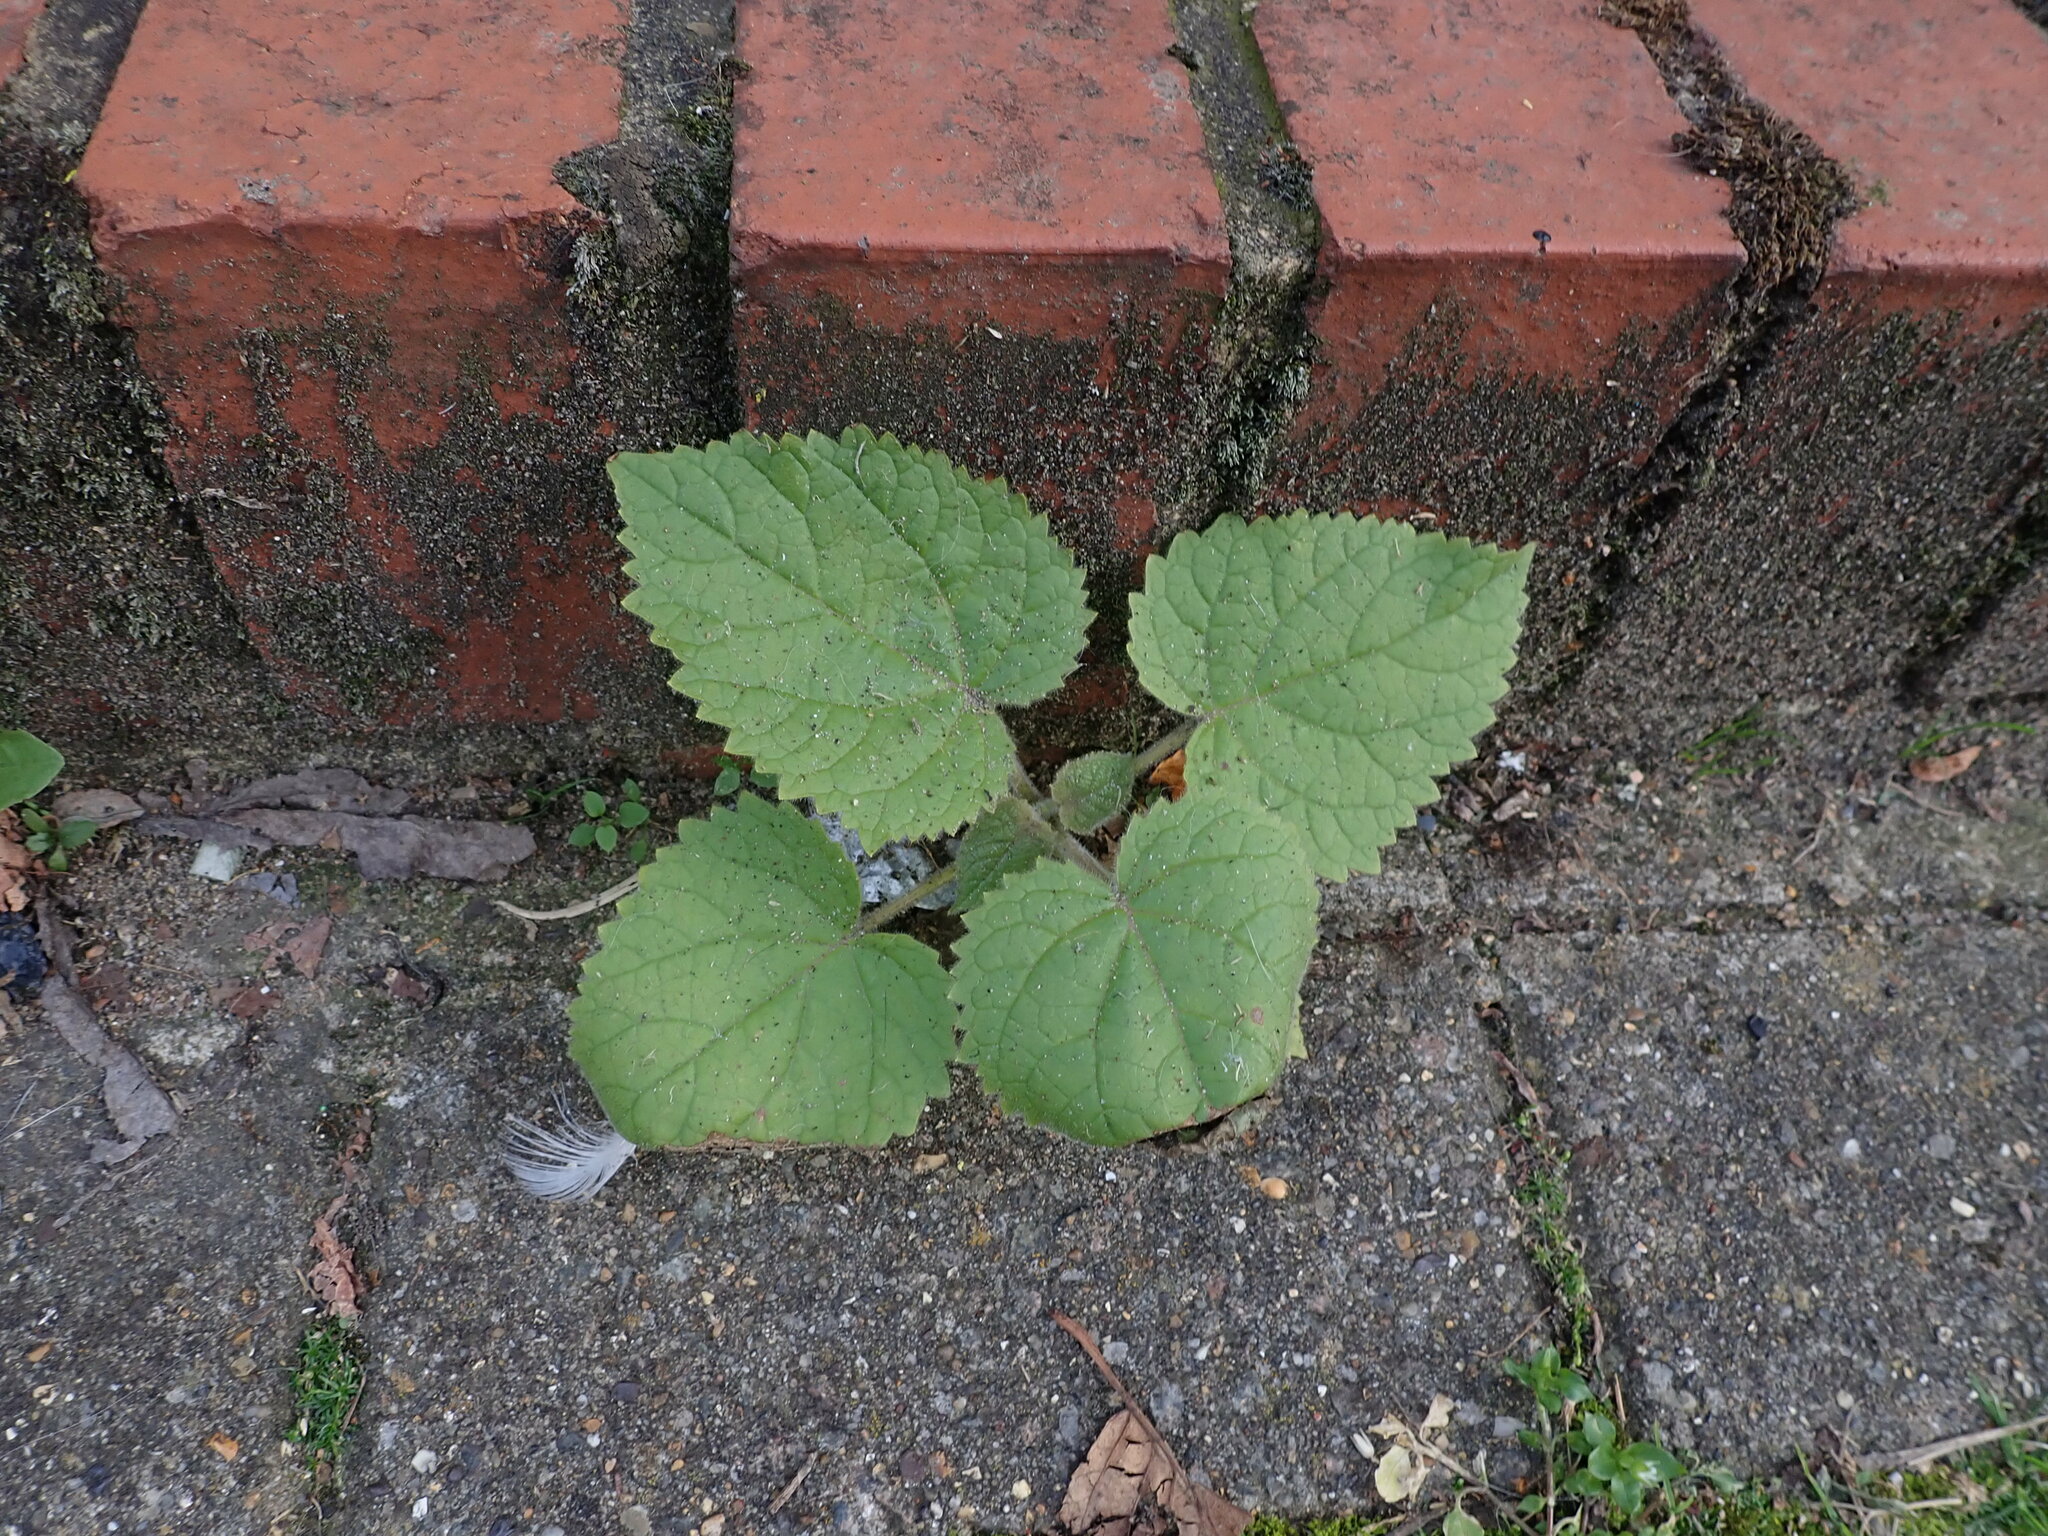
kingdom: Plantae
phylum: Tracheophyta
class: Magnoliopsida
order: Lamiales
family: Paulowniaceae
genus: Paulownia
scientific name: Paulownia tomentosa
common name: Foxglove-tree
